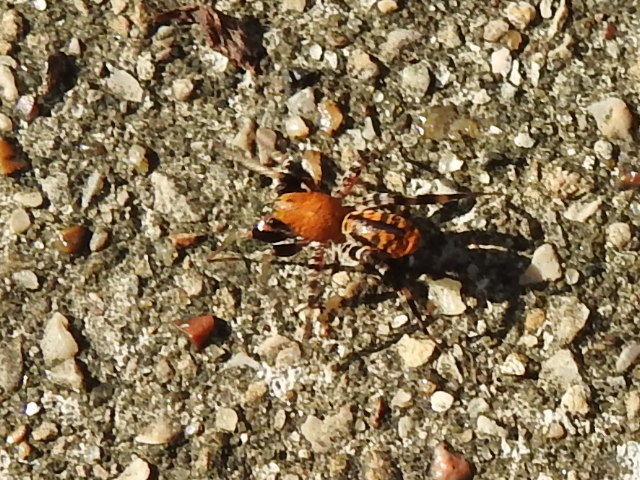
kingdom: Animalia
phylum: Arthropoda
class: Arachnida
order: Araneae
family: Corinnidae
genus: Castianeira
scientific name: Castianeira amoena
